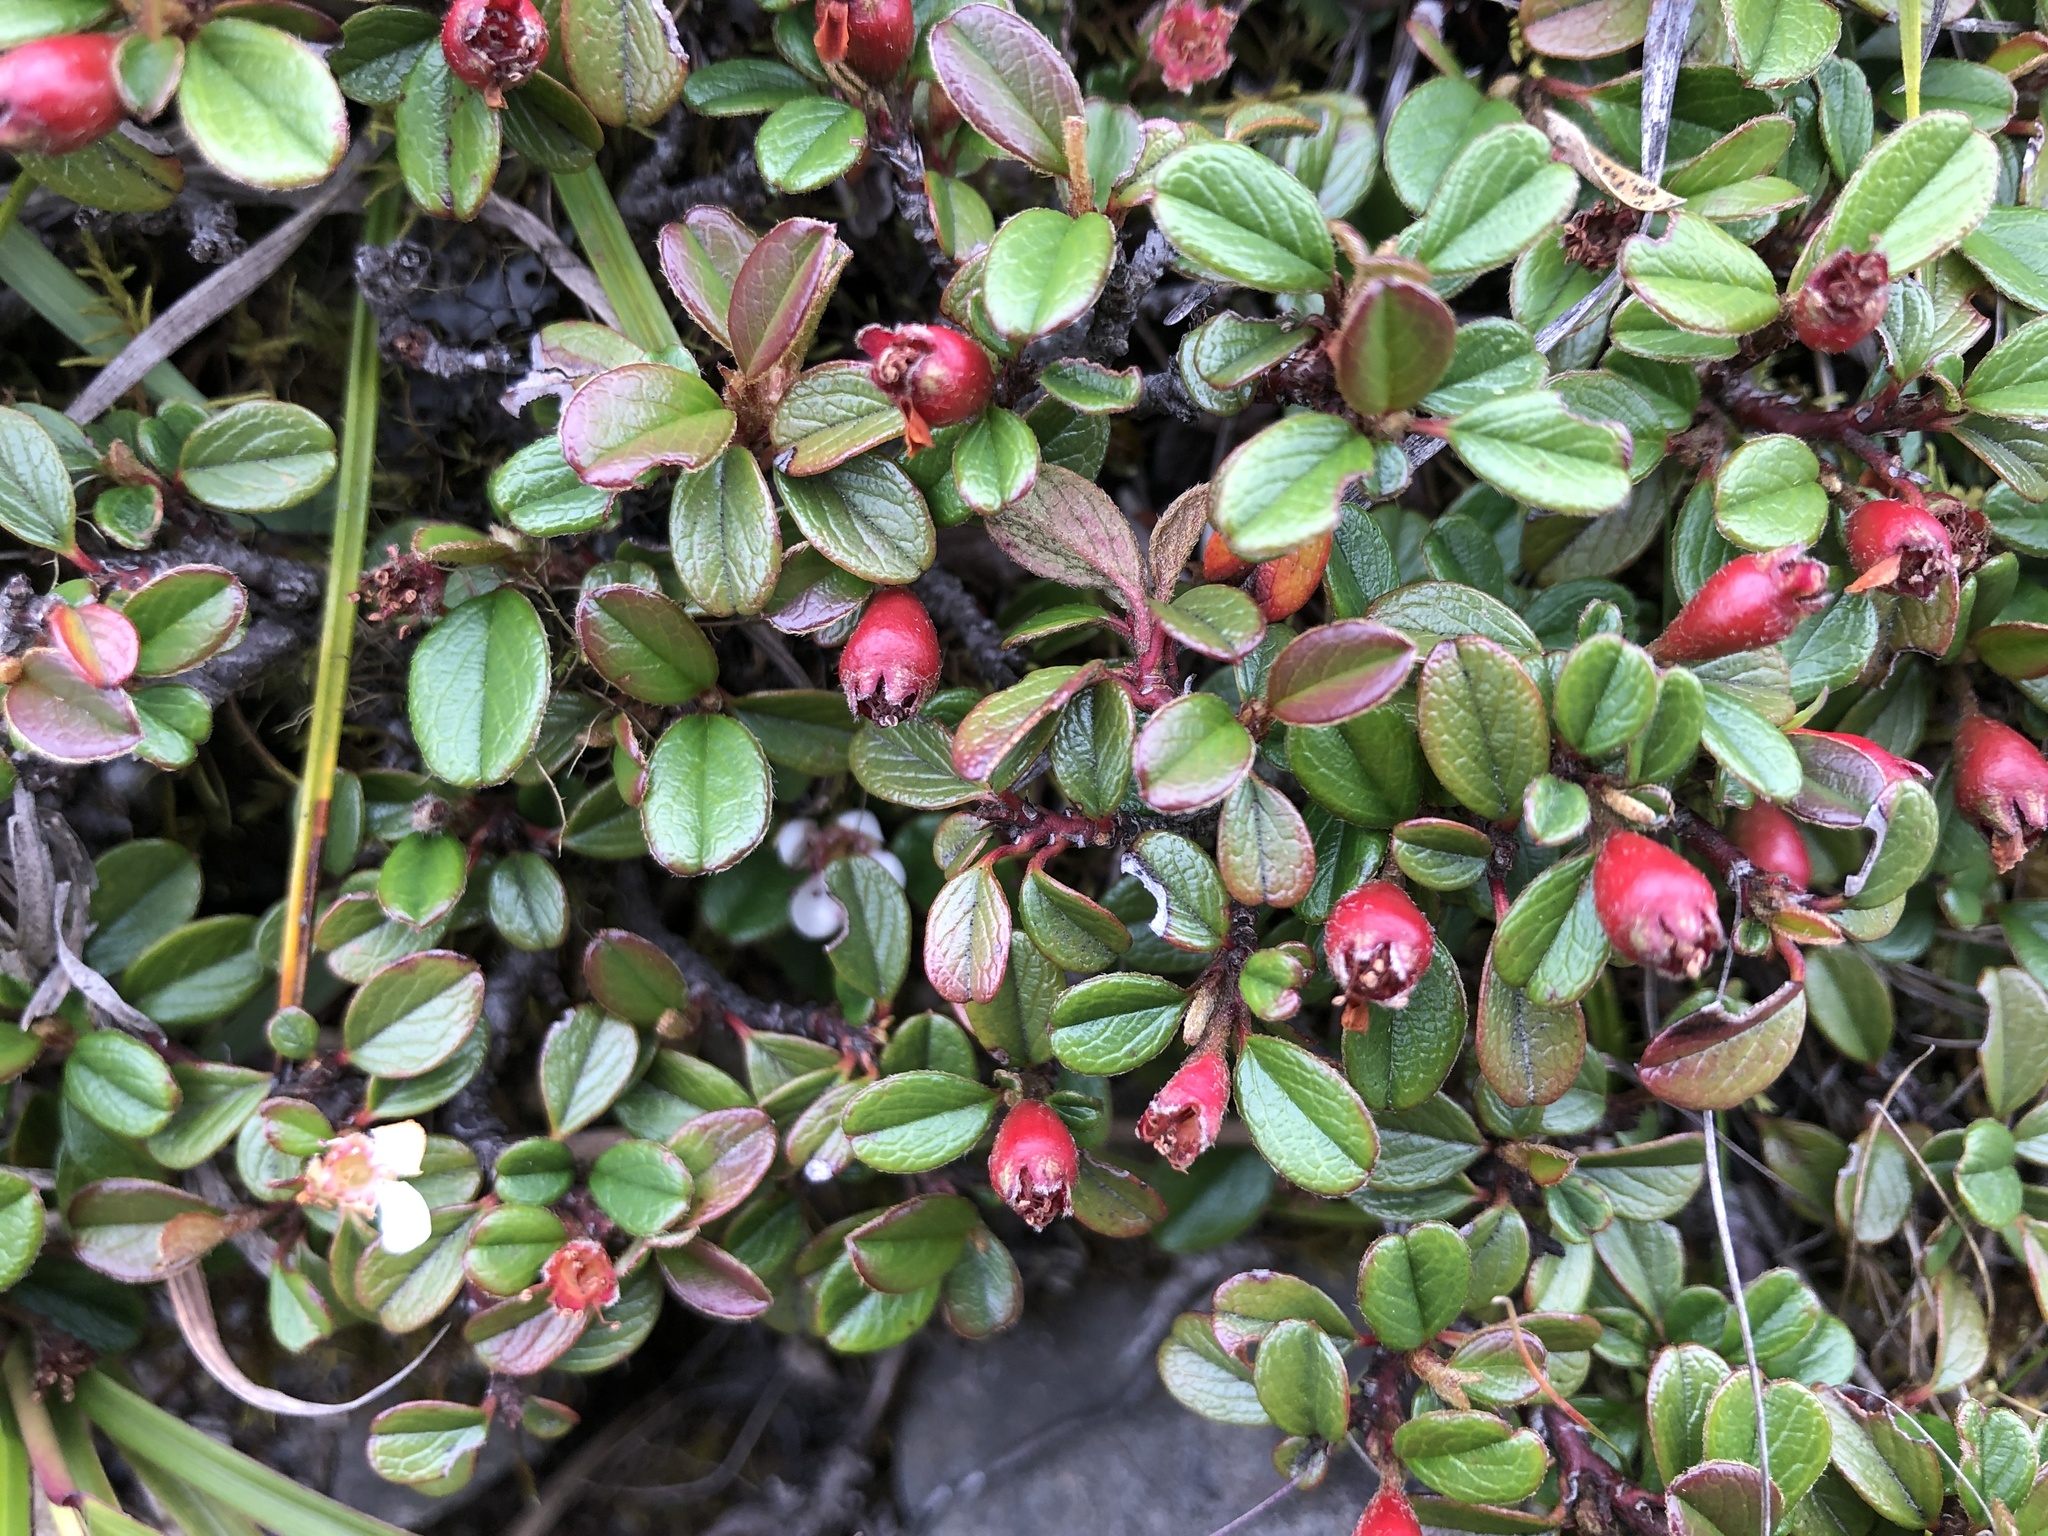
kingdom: Plantae
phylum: Tracheophyta
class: Magnoliopsida
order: Rosales
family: Rosaceae
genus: Cotoneaster
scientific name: Cotoneaster morrisonensis
